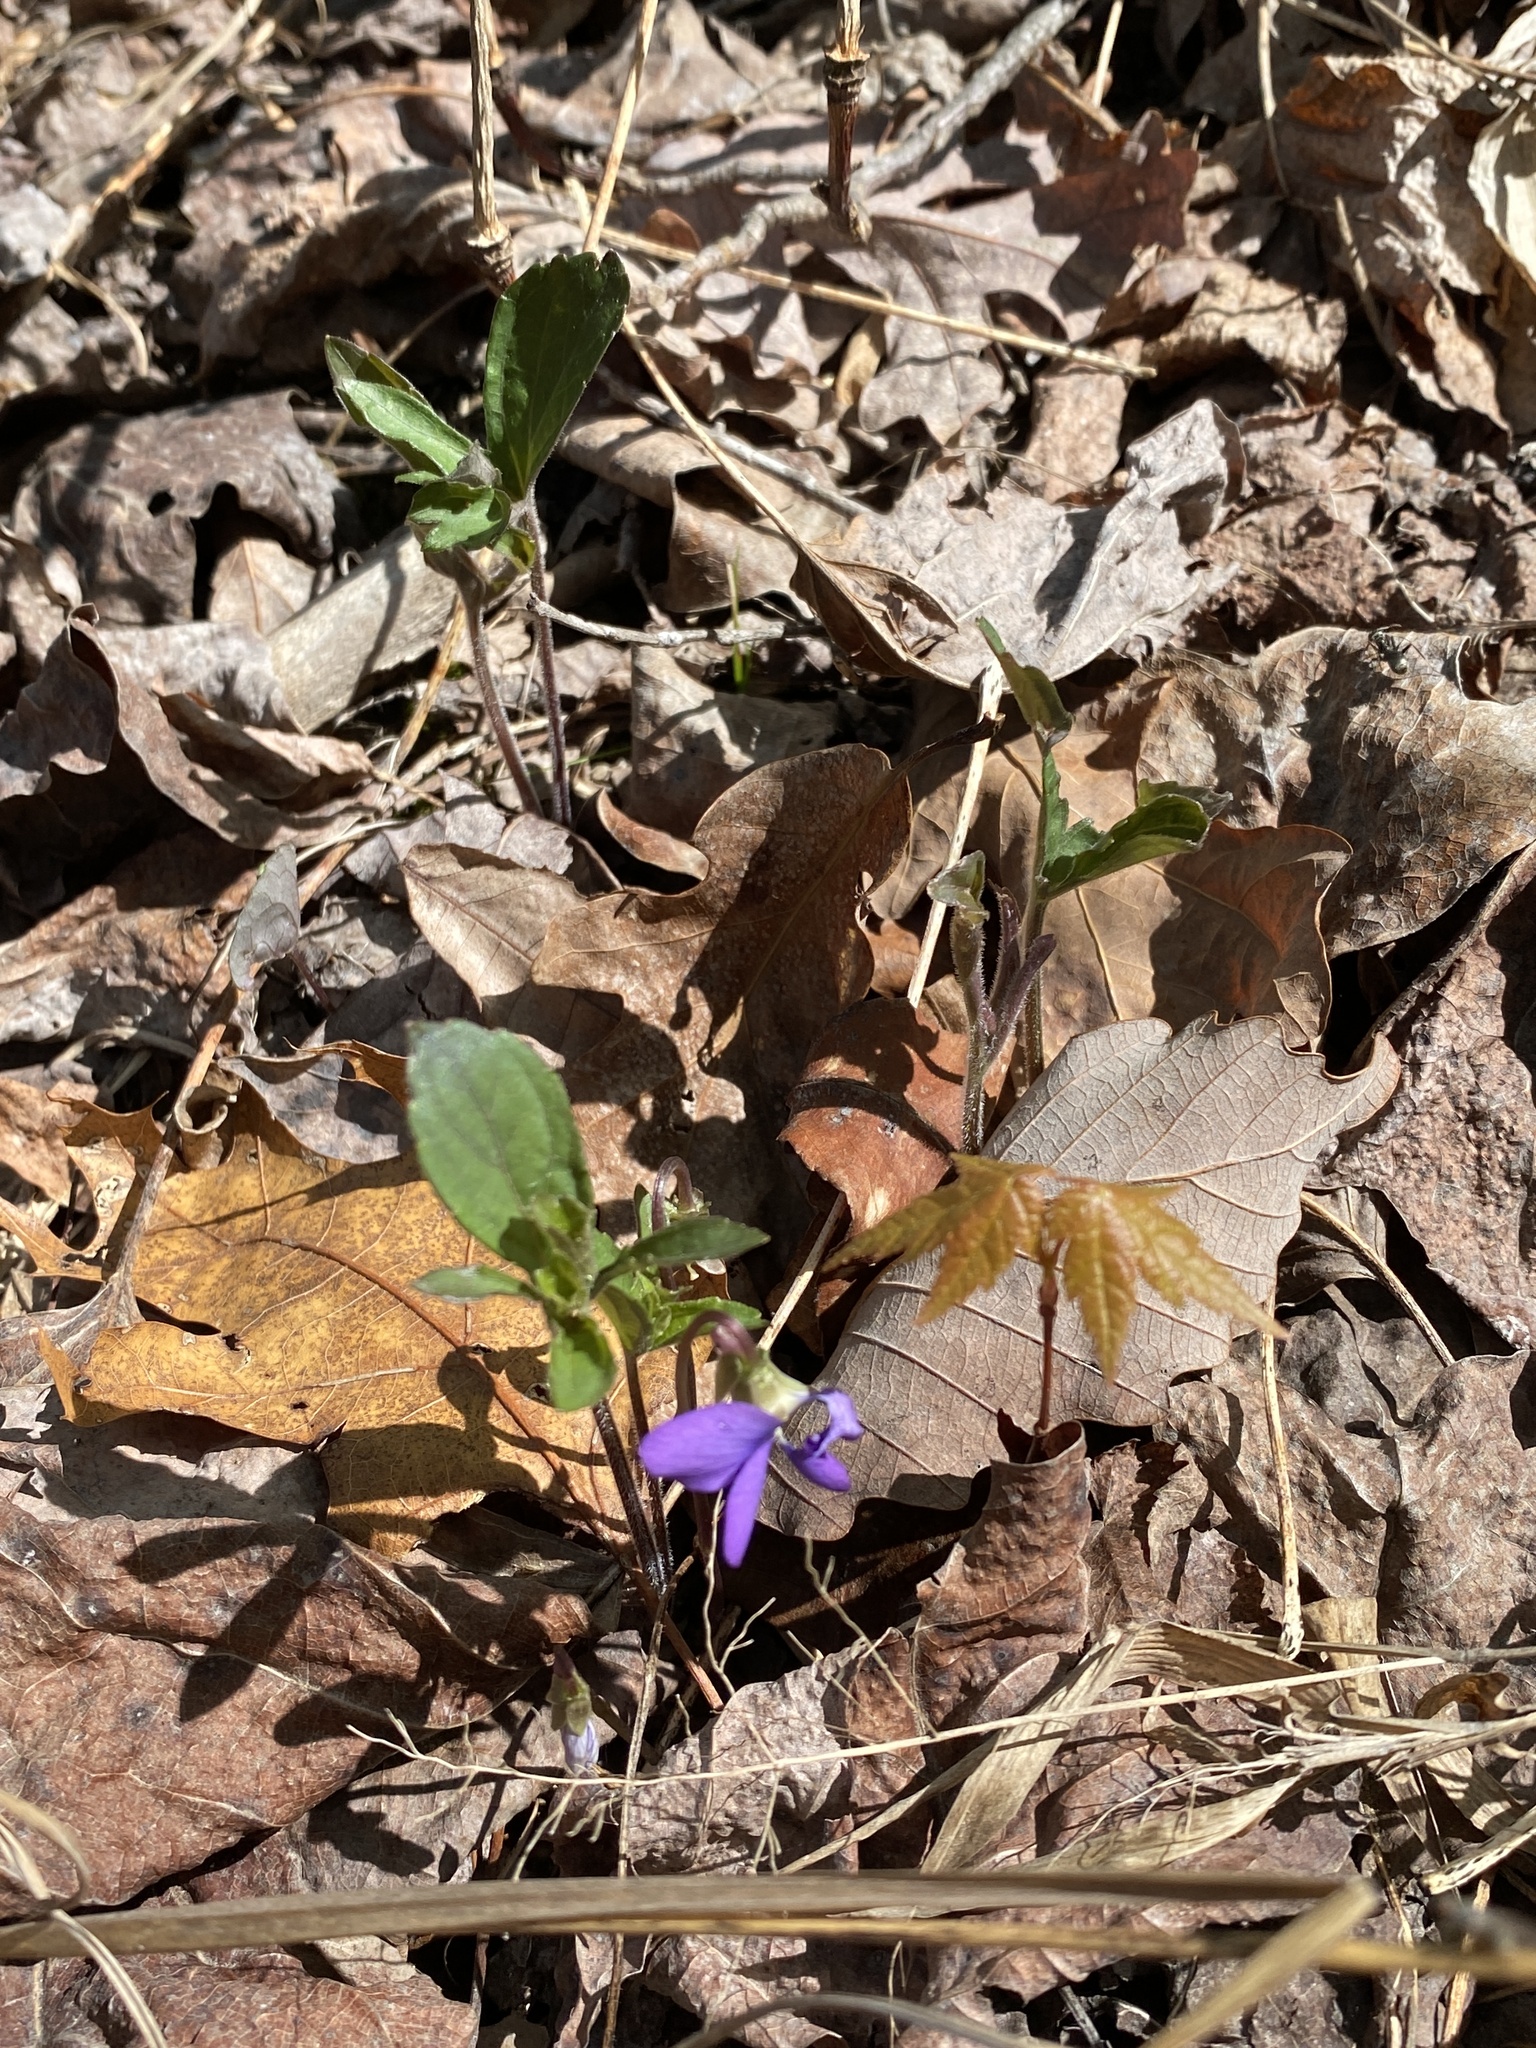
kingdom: Plantae
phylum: Tracheophyta
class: Magnoliopsida
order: Malpighiales
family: Violaceae
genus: Viola
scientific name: Viola palmata
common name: Early blue violet
